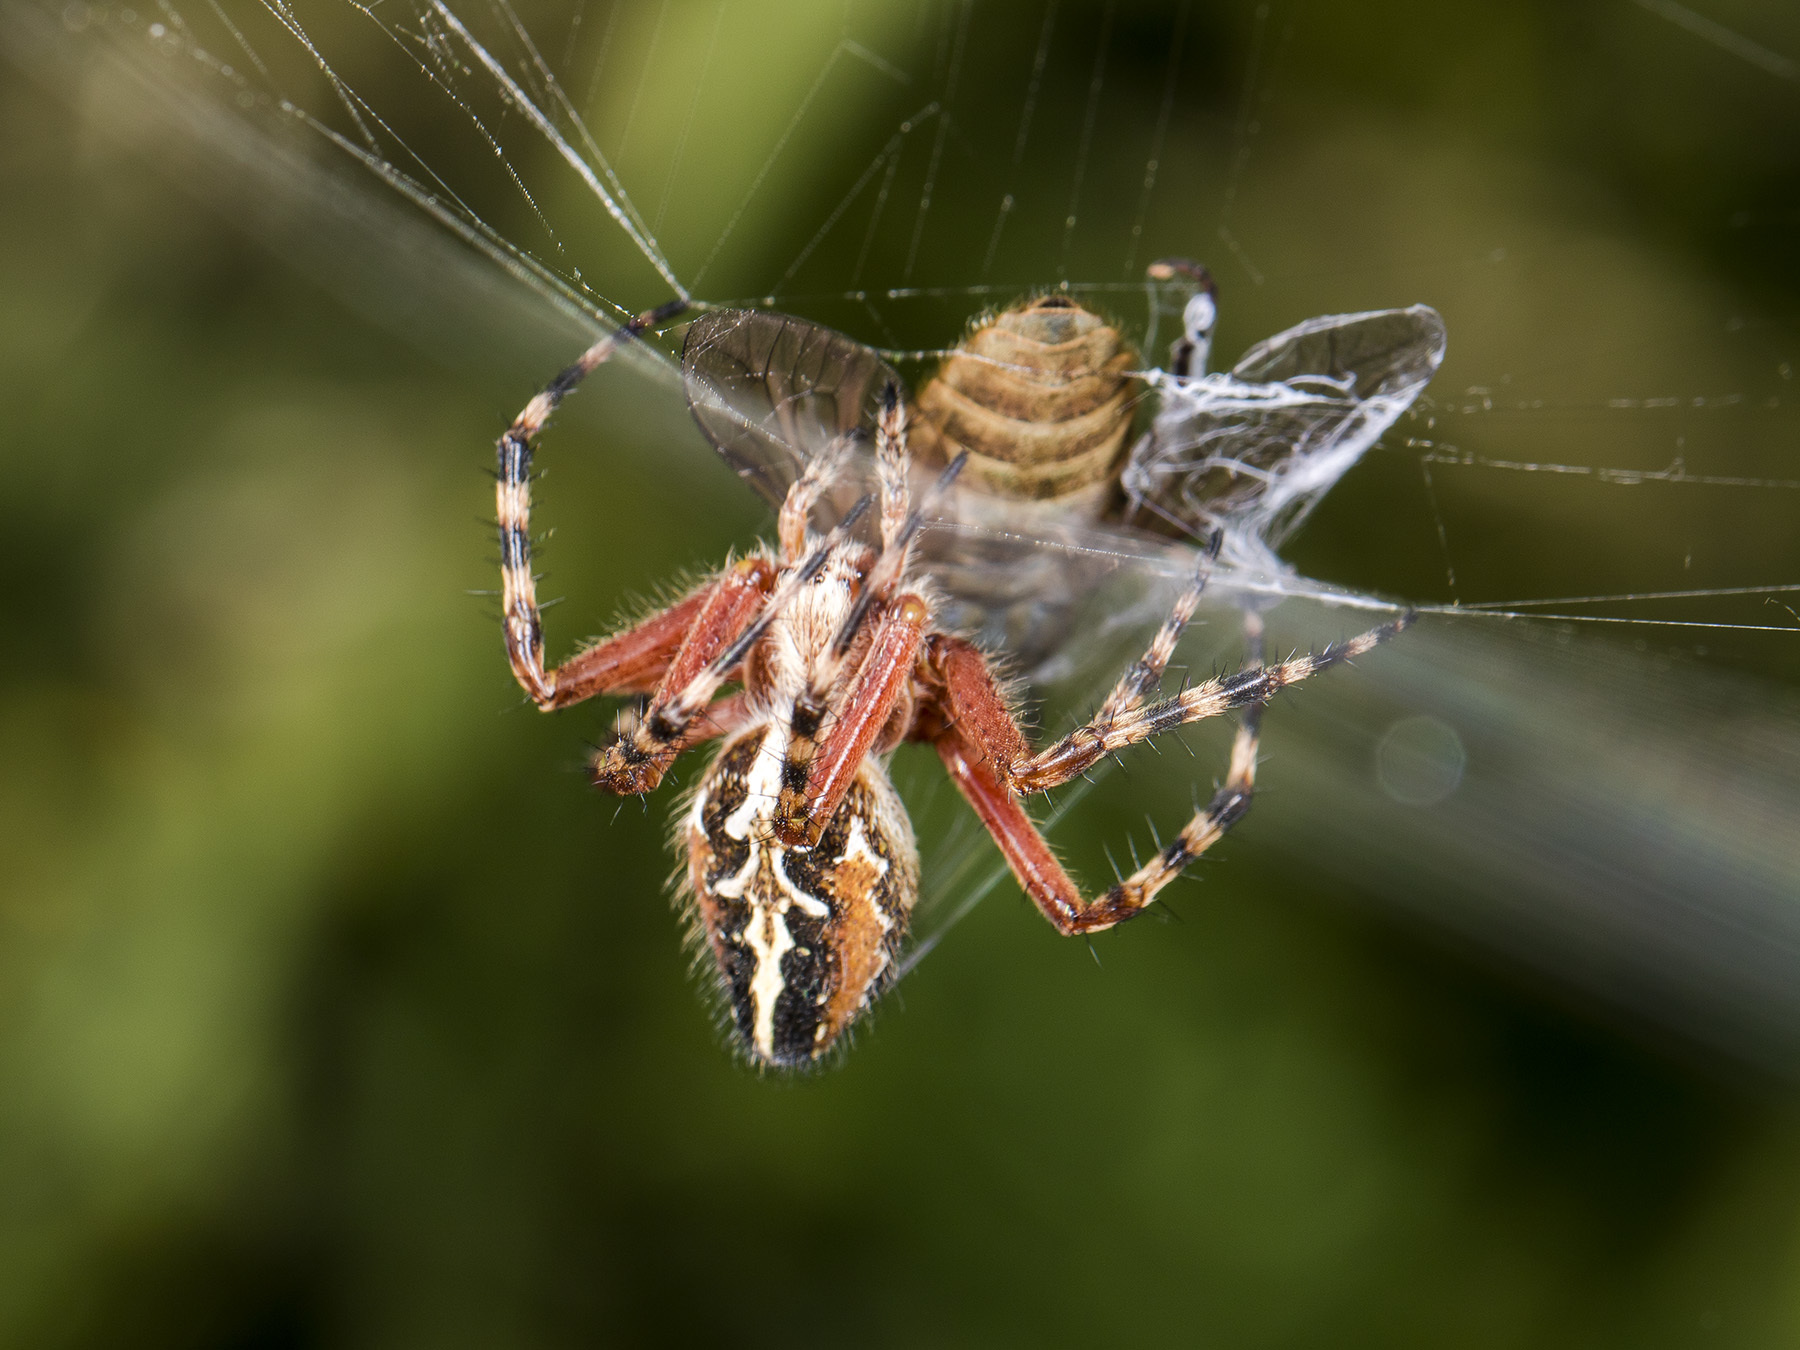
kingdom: Animalia
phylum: Arthropoda
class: Arachnida
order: Araneae
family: Araneidae
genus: Aculepeira
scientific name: Aculepeira packardi
